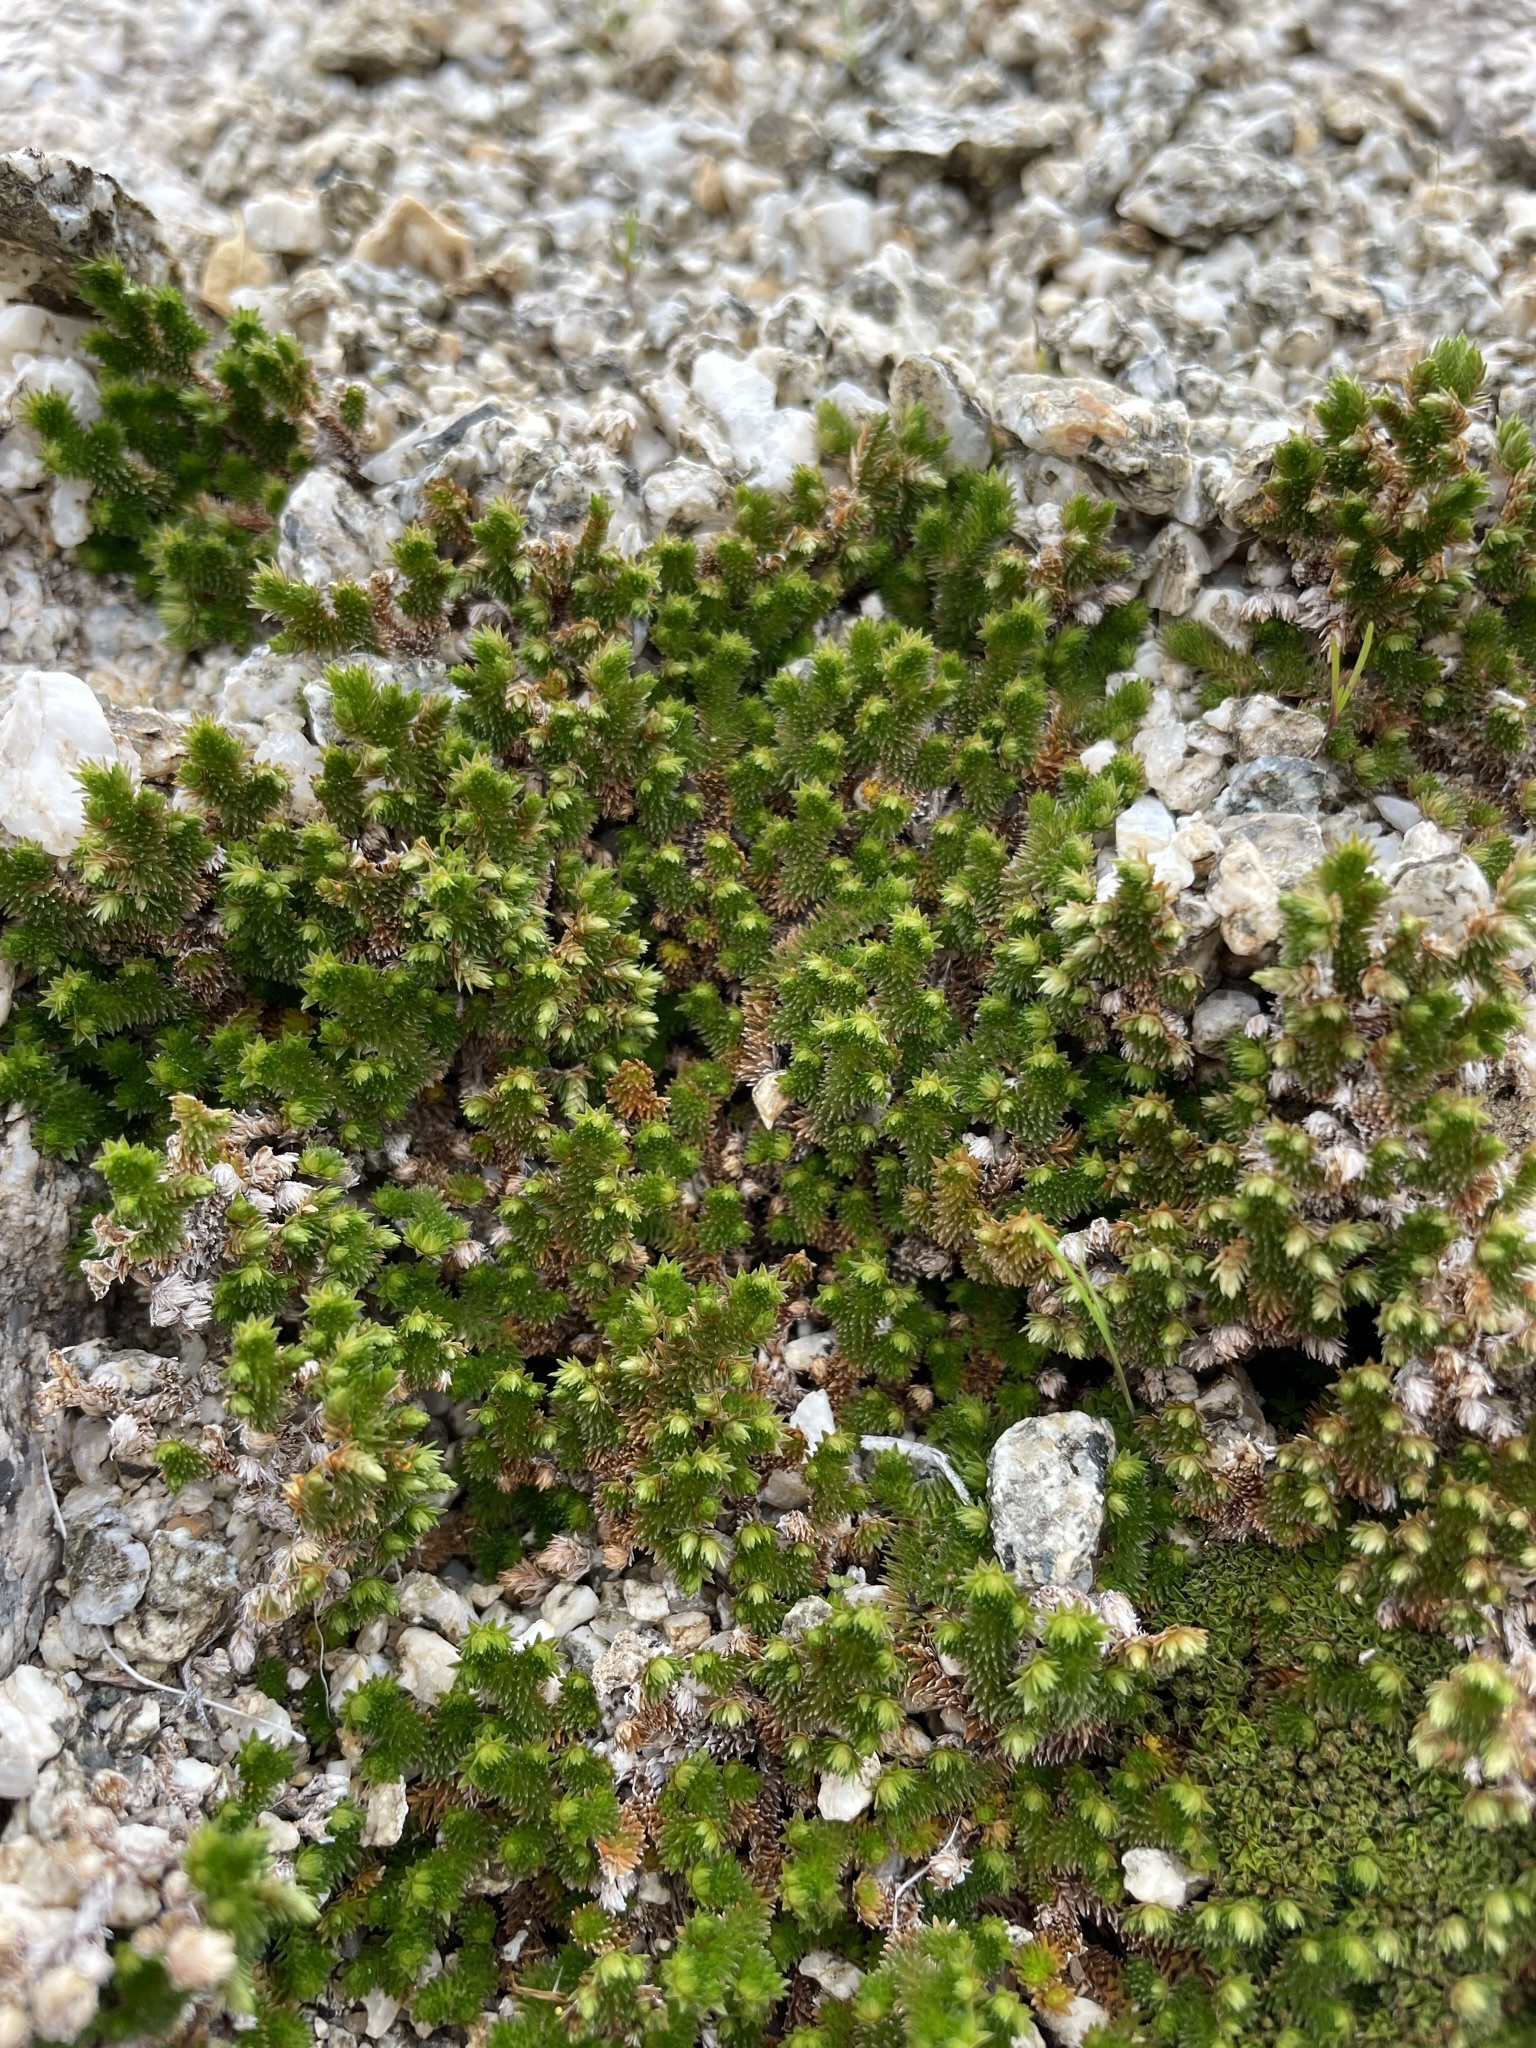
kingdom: Plantae
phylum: Tracheophyta
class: Lycopodiopsida
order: Selaginellales
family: Selaginellaceae
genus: Selaginella
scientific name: Selaginella eremophila
